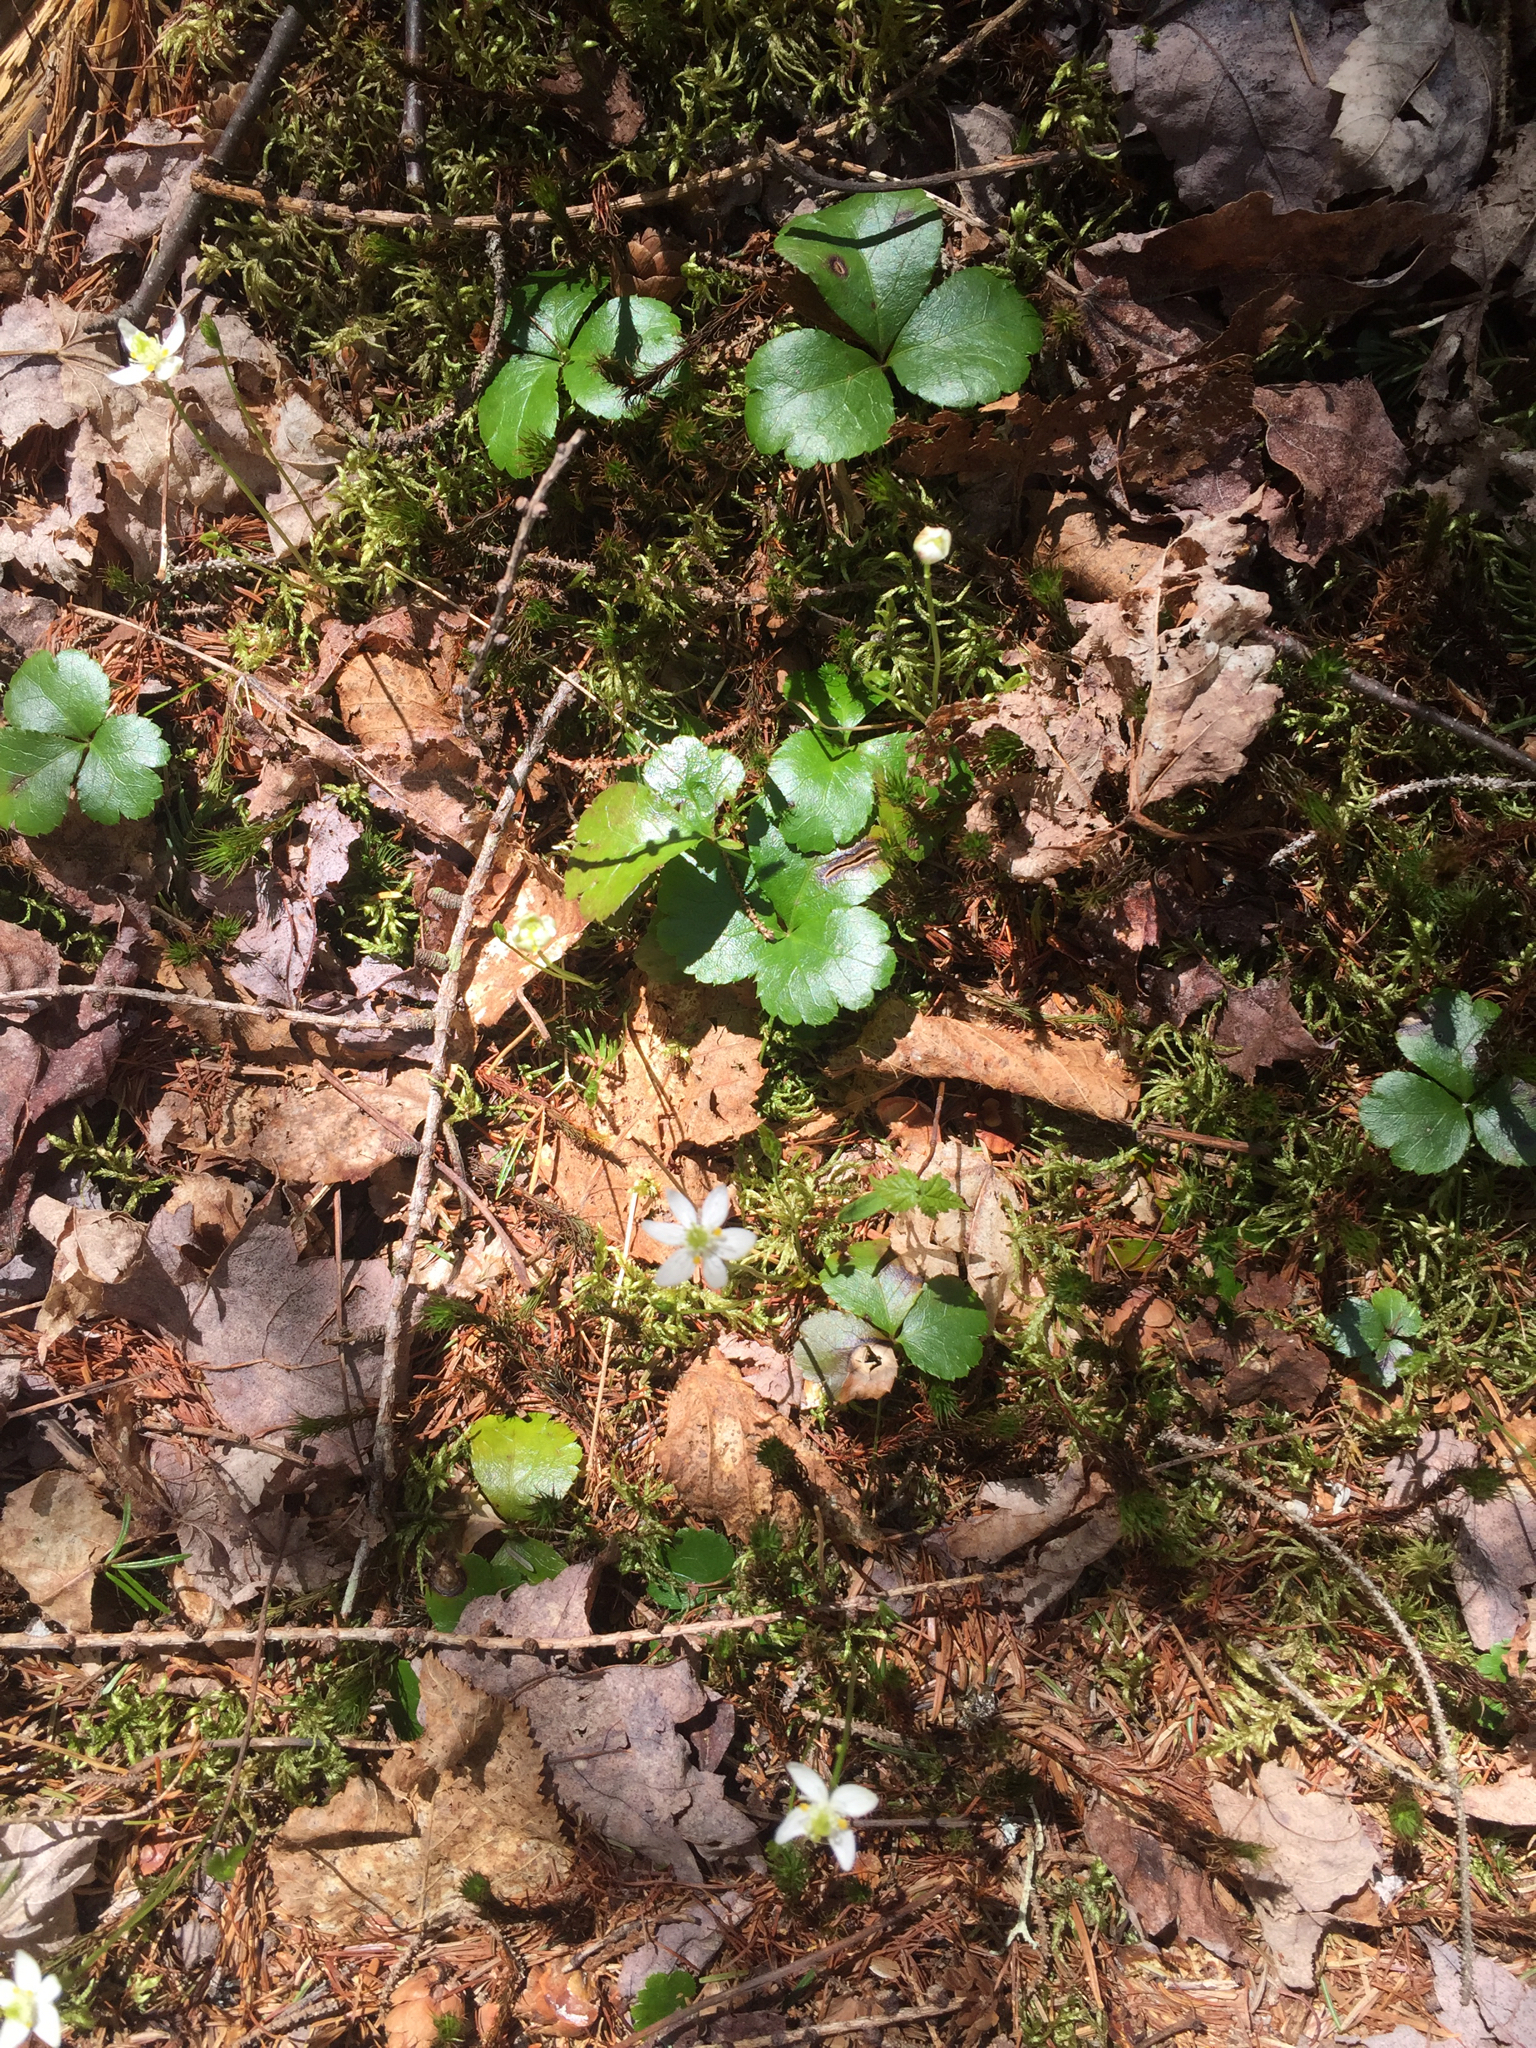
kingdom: Plantae
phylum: Tracheophyta
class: Magnoliopsida
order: Ranunculales
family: Ranunculaceae
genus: Coptis
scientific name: Coptis trifolia
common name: Canker-root
